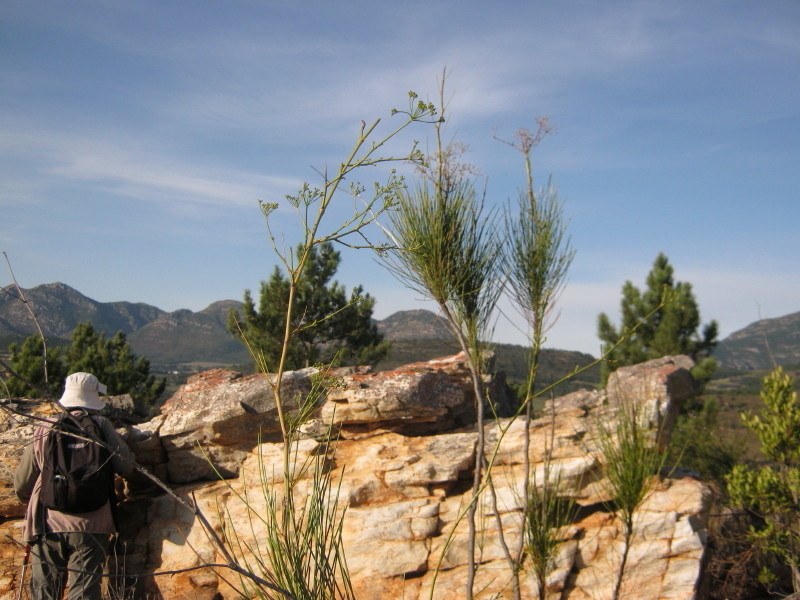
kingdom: Plantae
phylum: Tracheophyta
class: Magnoliopsida
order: Apiales
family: Apiaceae
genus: Anginon
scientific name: Anginon difforme
